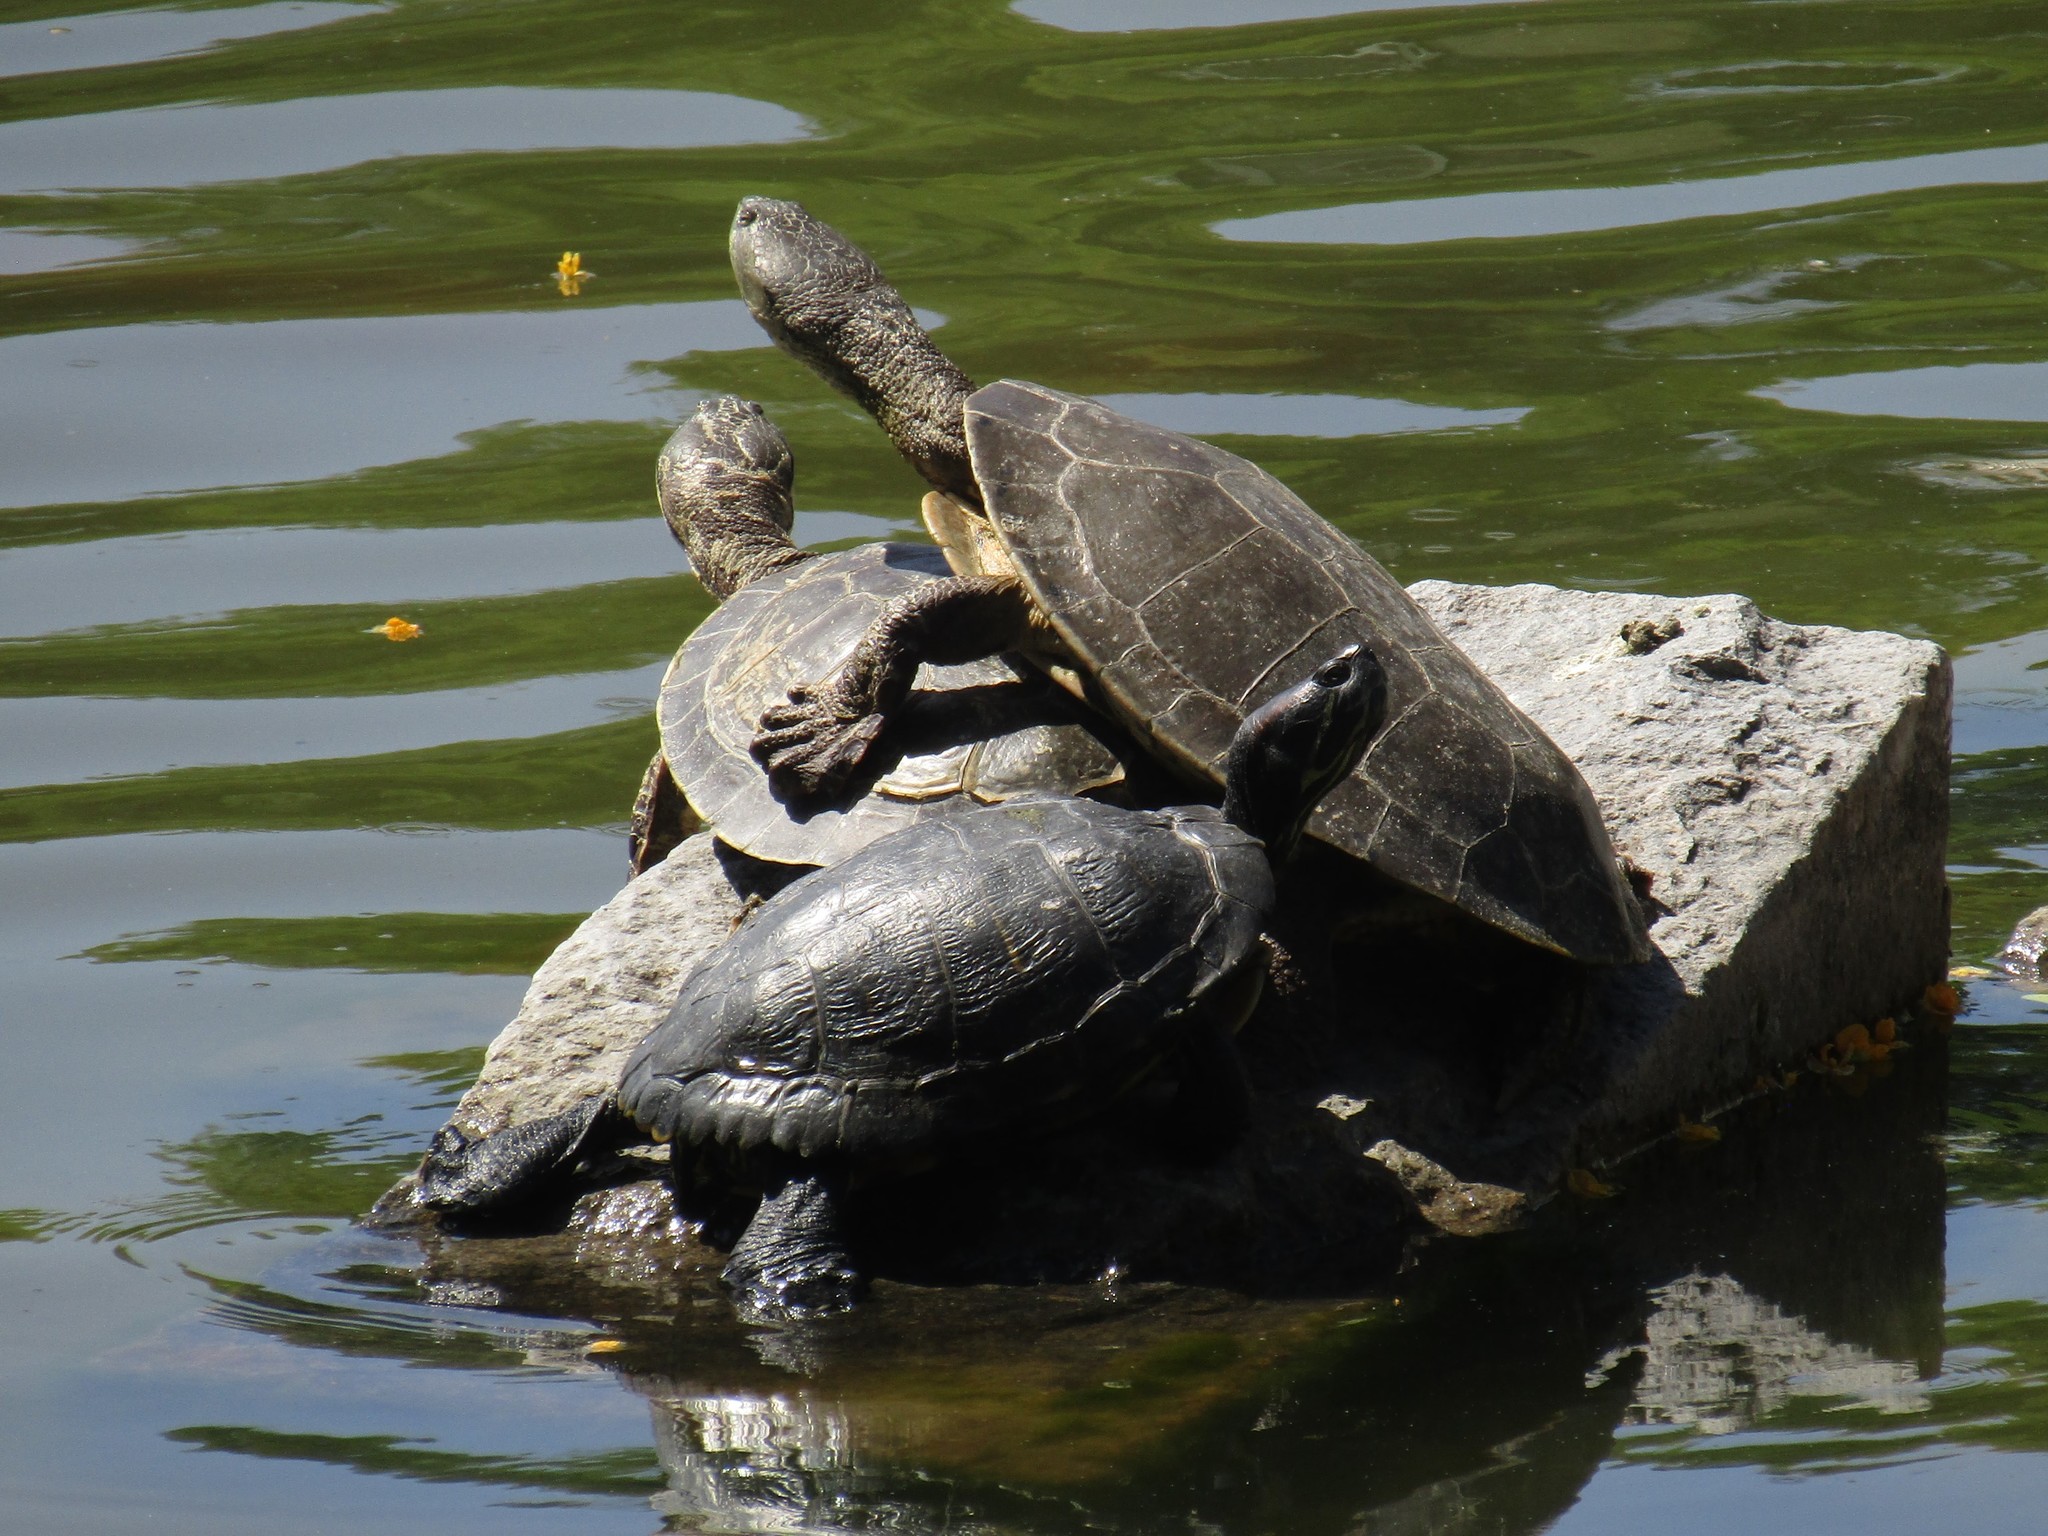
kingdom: Animalia
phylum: Chordata
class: Testudines
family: Chelidae
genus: Phrynops
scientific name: Phrynops hilarii
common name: Side-necked turtle of saint hillaire
